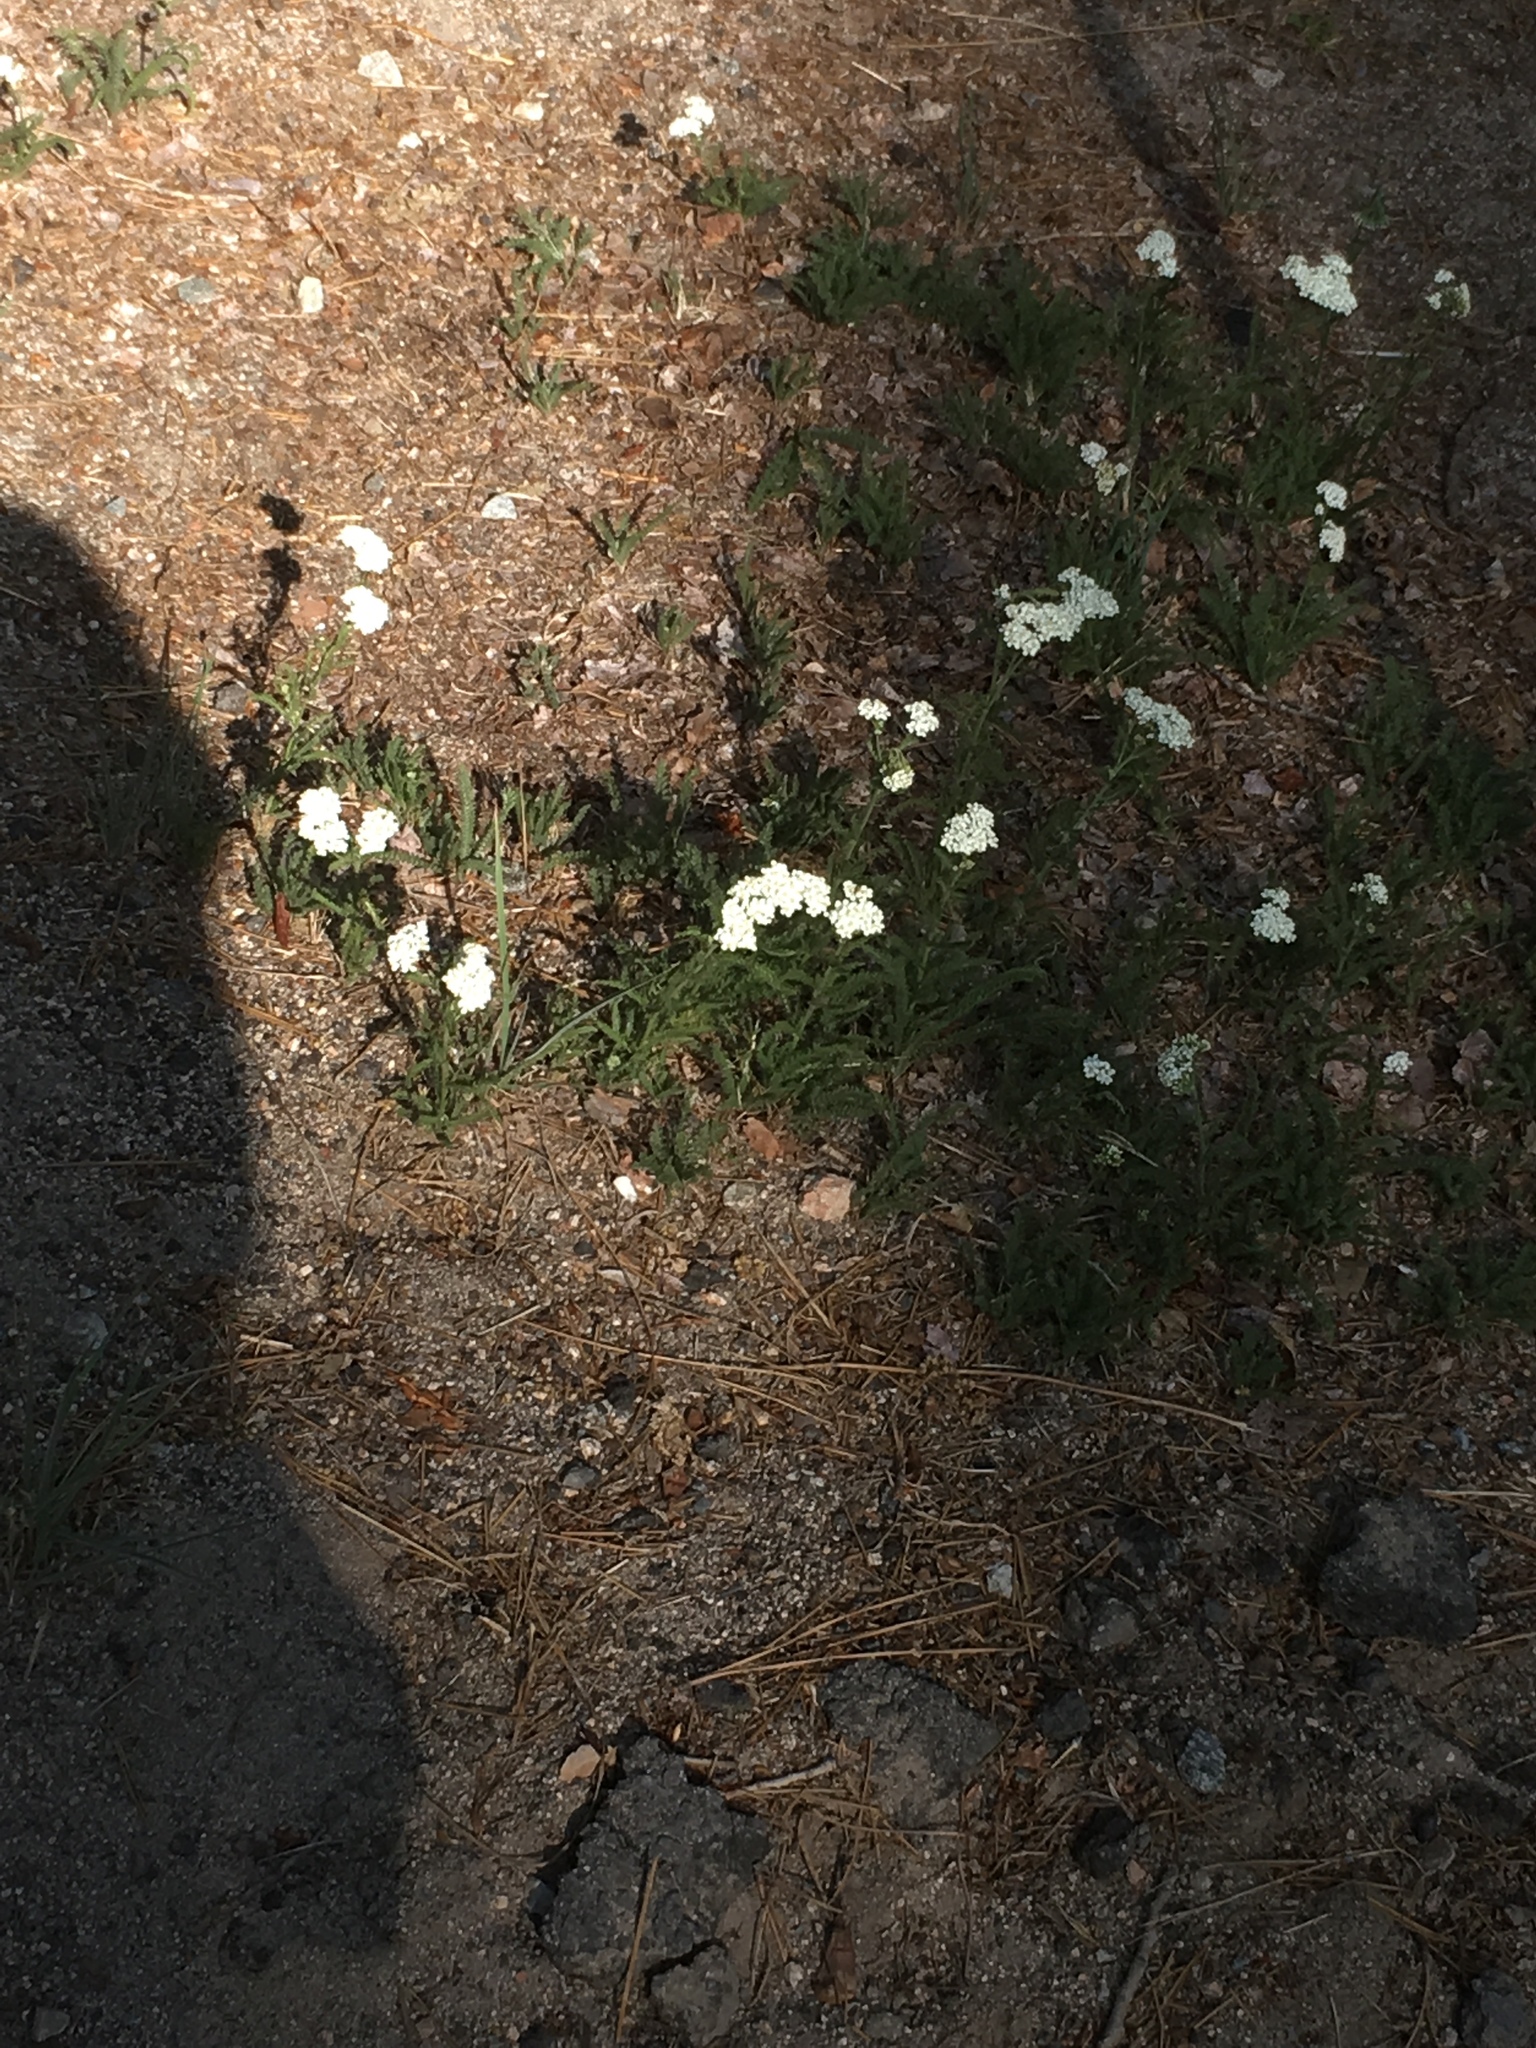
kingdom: Plantae
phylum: Tracheophyta
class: Magnoliopsida
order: Asterales
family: Asteraceae
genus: Achillea
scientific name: Achillea millefolium
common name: Yarrow
